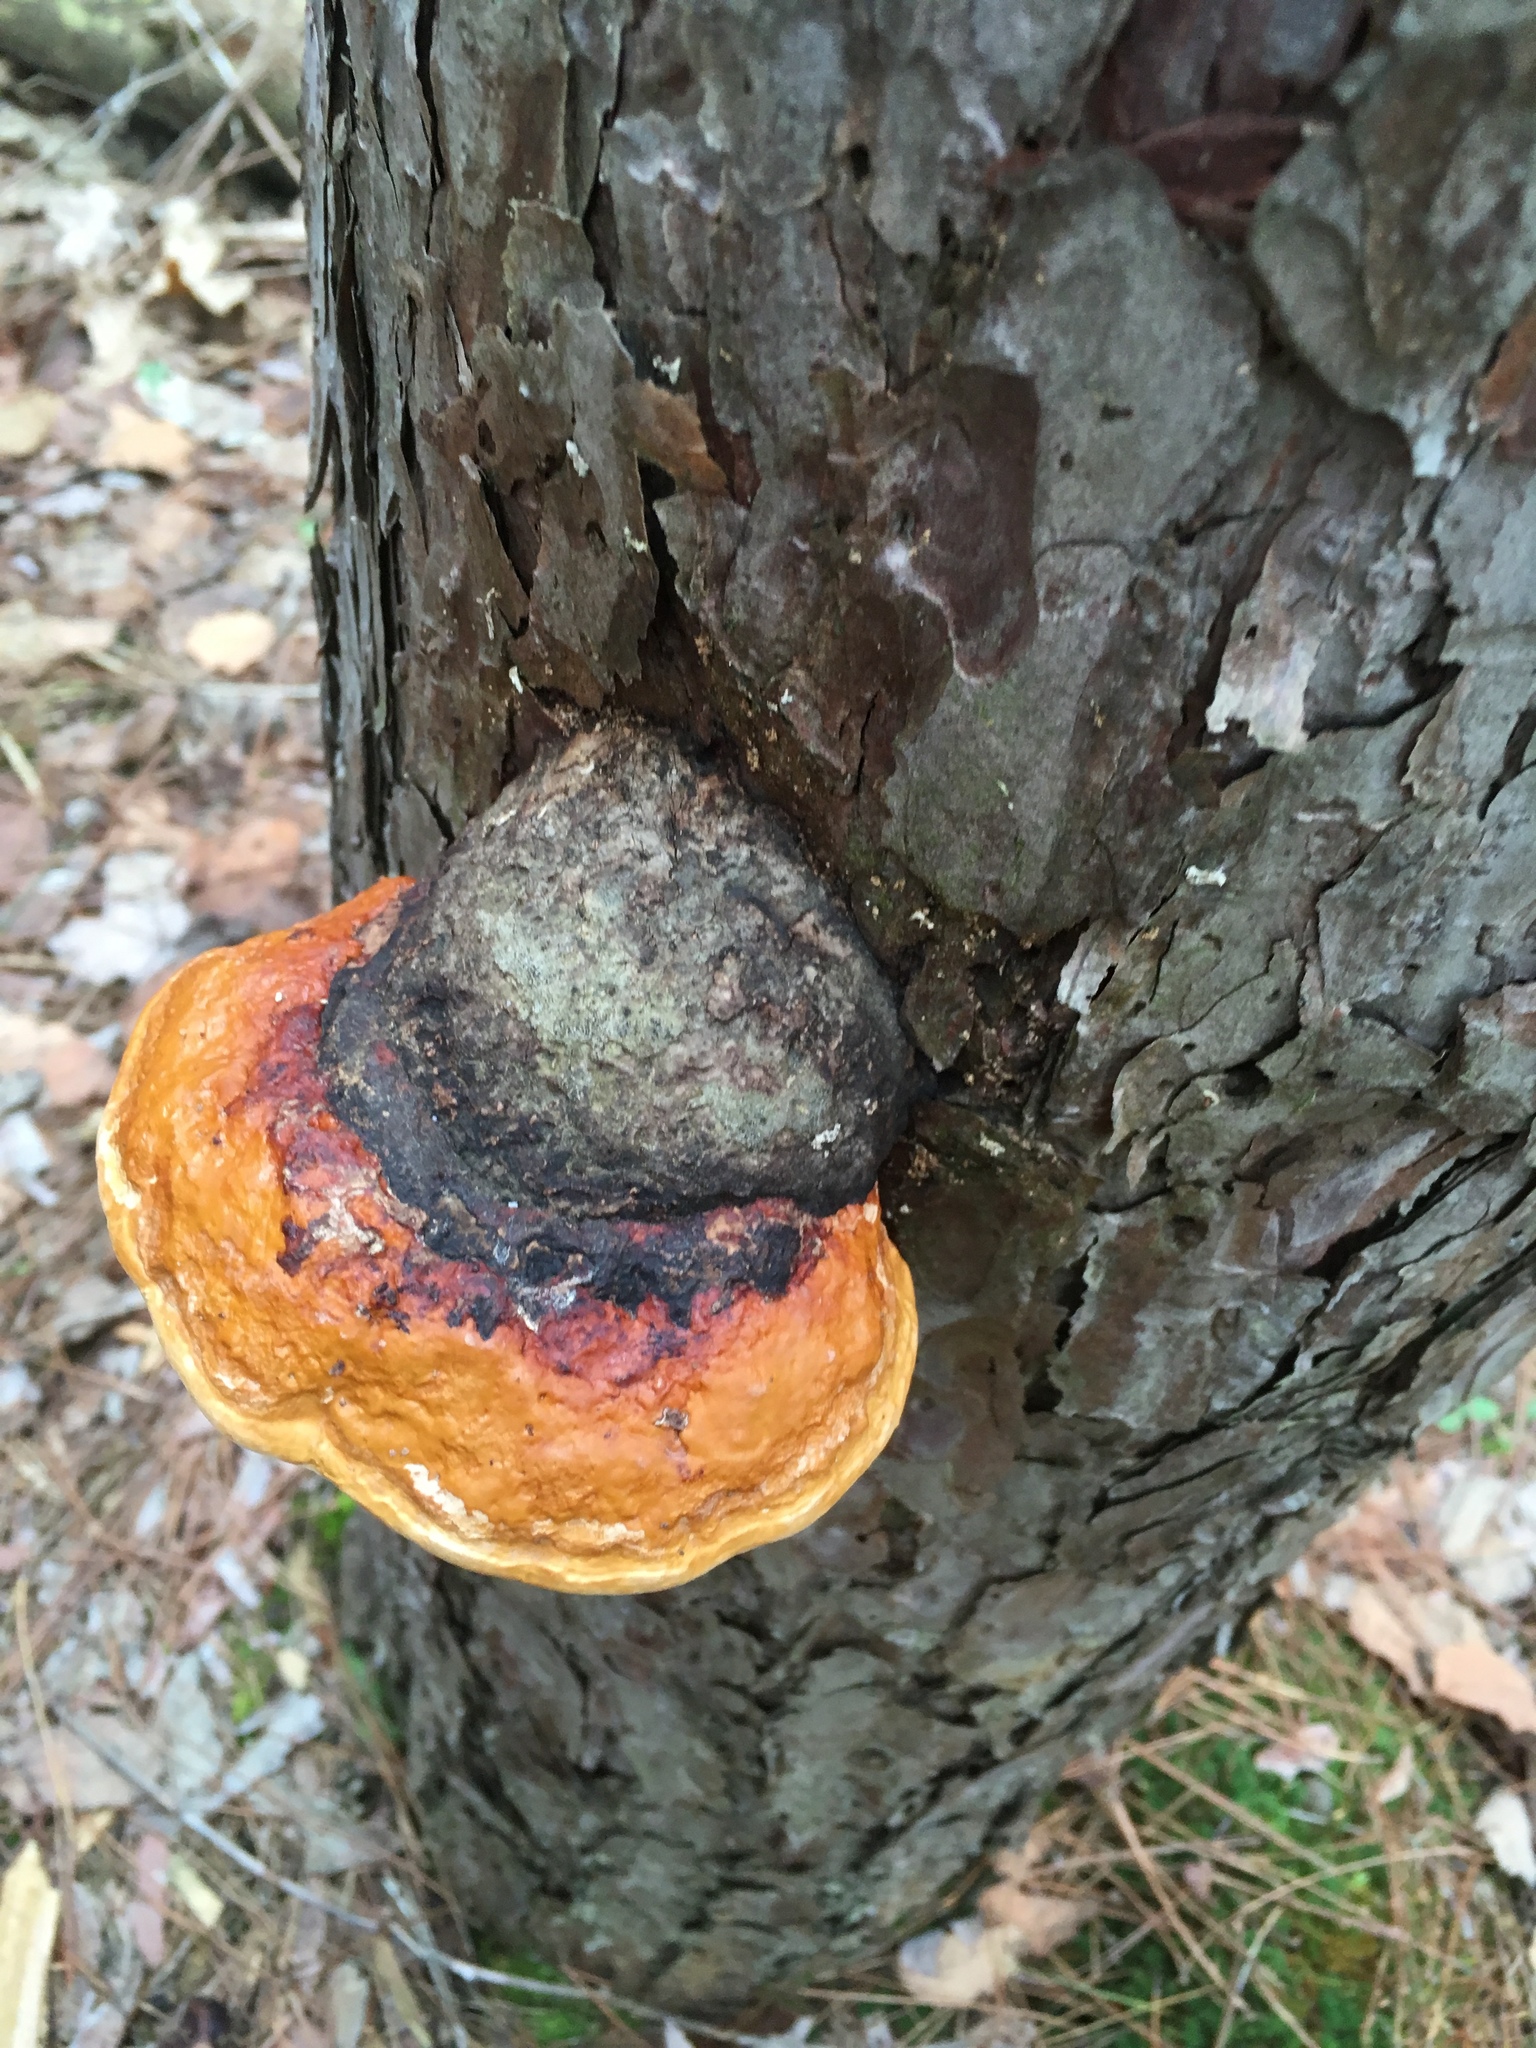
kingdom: Fungi
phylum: Basidiomycota
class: Agaricomycetes
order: Polyporales
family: Fomitopsidaceae
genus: Fomitopsis
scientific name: Fomitopsis mounceae
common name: Northern red belt
